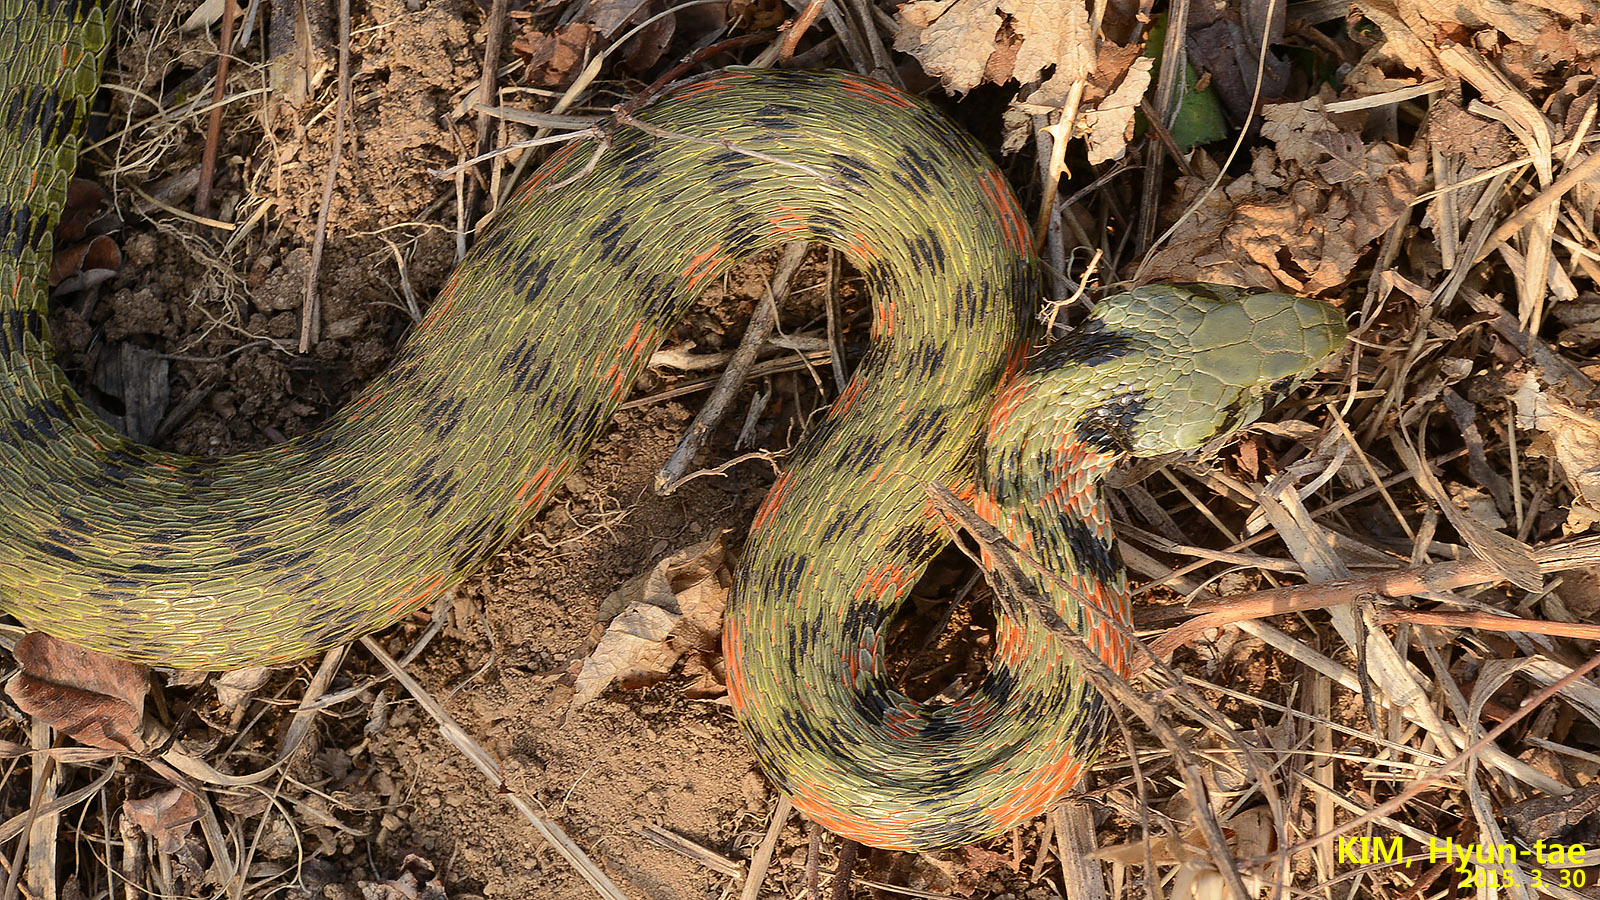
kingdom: Animalia
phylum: Chordata
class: Squamata
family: Colubridae
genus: Rhabdophis
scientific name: Rhabdophis tigrinus
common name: Tiger keelback
